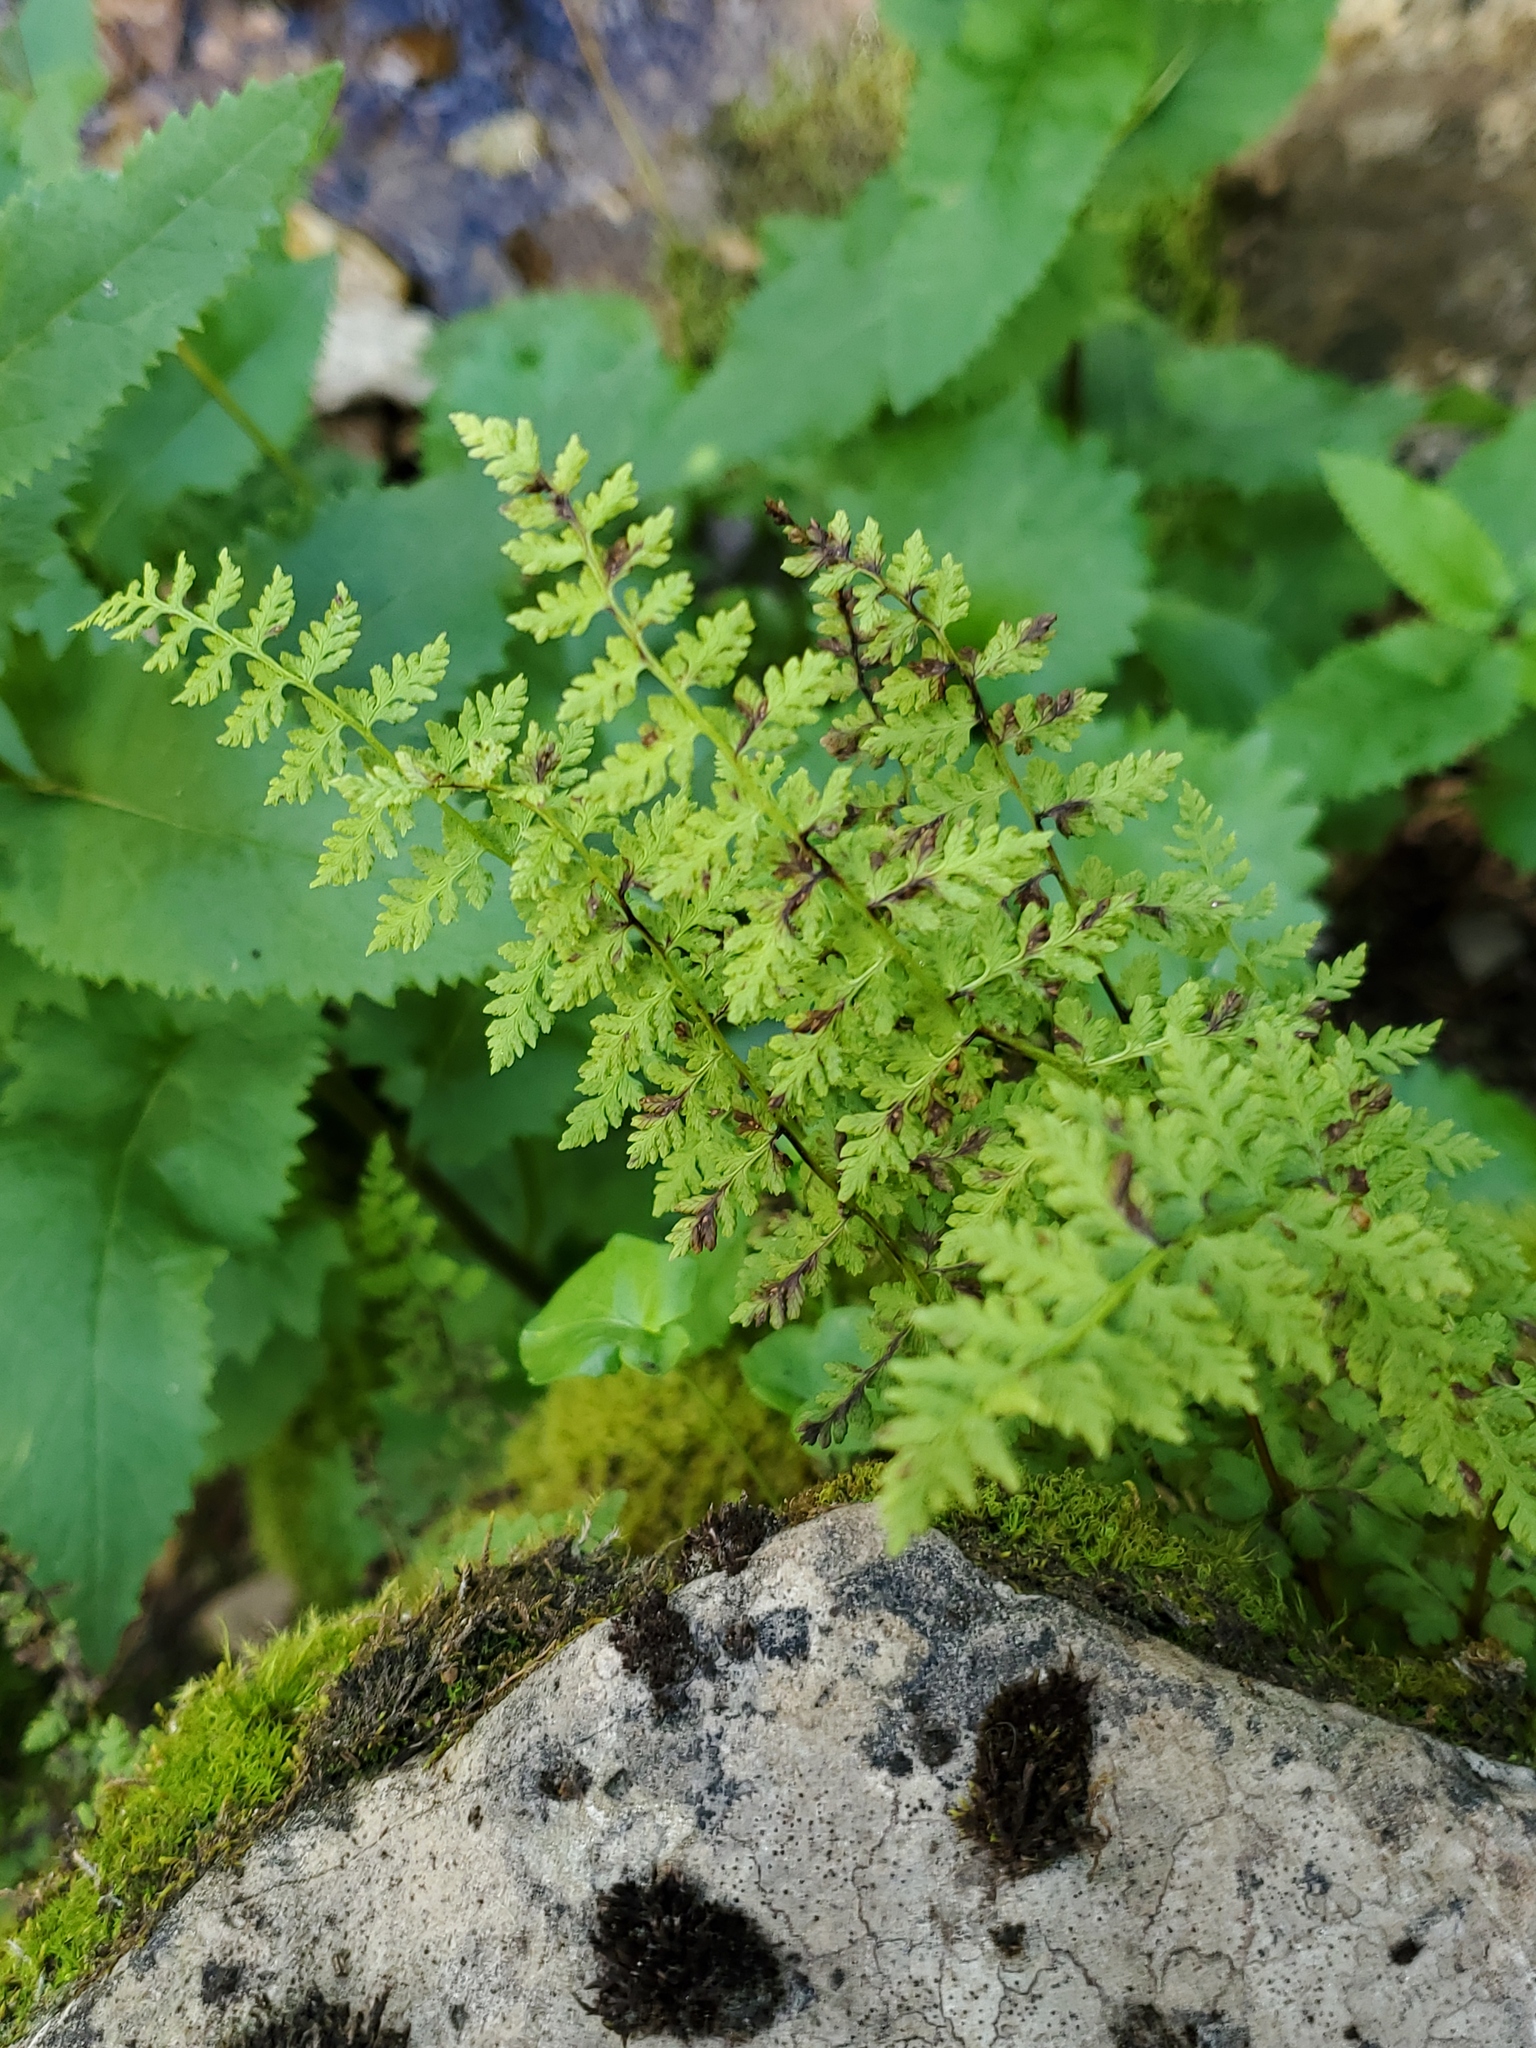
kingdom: Plantae
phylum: Tracheophyta
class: Polypodiopsida
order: Polypodiales
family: Cystopteridaceae
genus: Cystopteris
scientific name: Cystopteris fragilis
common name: Brittle bladder fern
